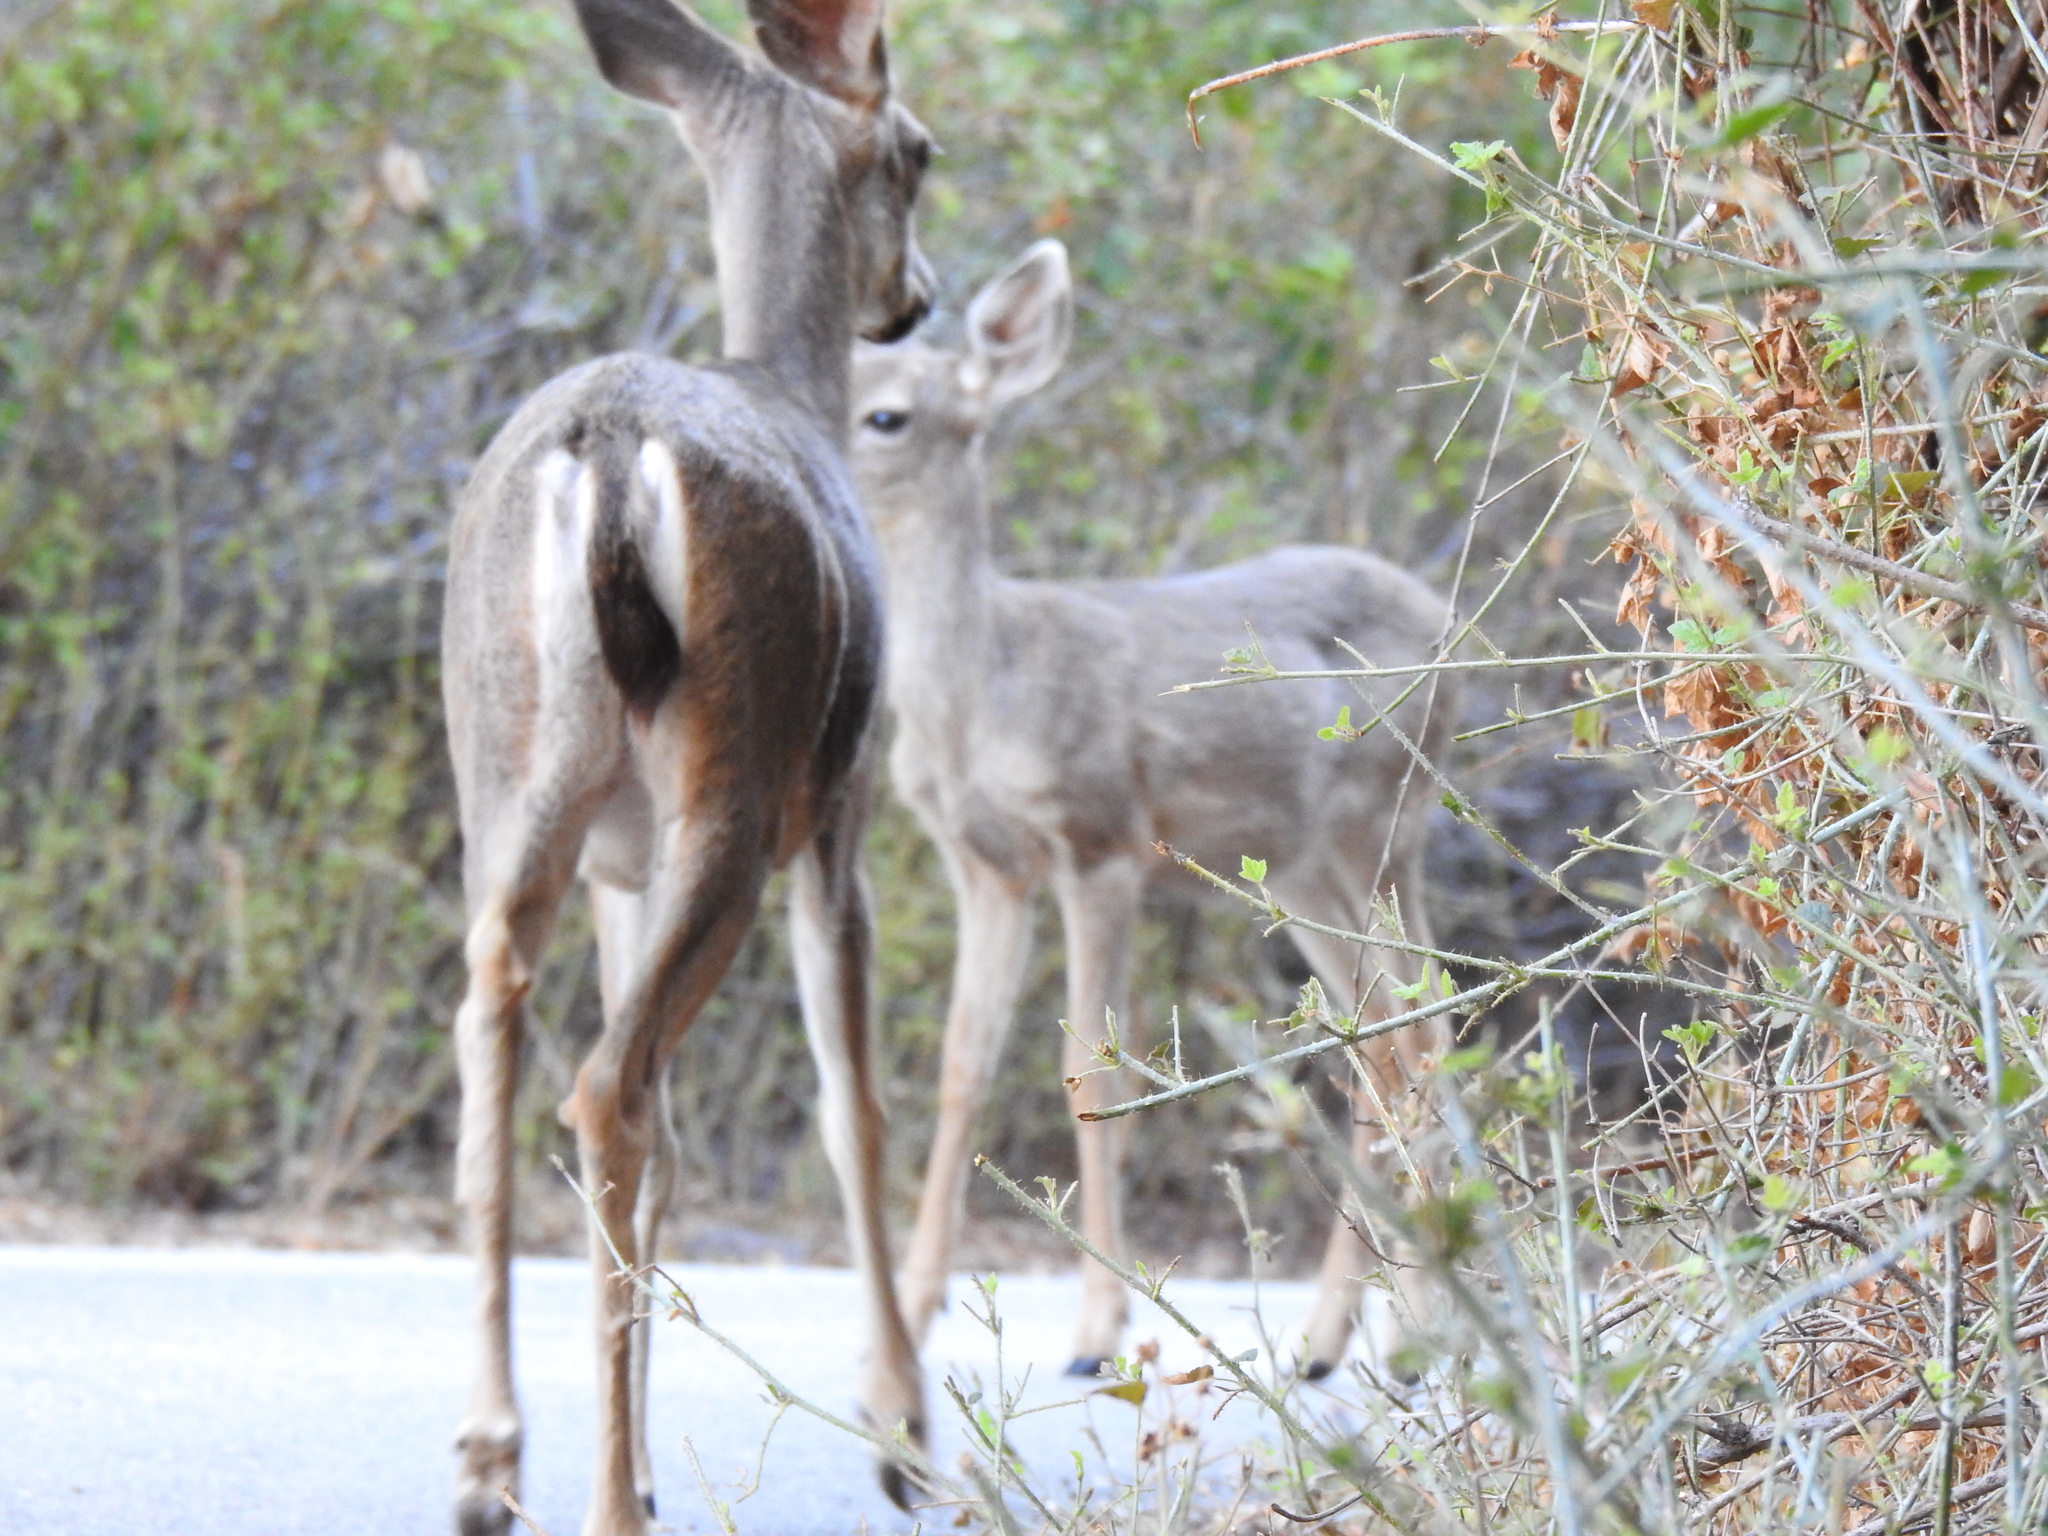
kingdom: Animalia
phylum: Chordata
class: Mammalia
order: Artiodactyla
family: Cervidae
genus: Odocoileus
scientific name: Odocoileus hemionus
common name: Mule deer
